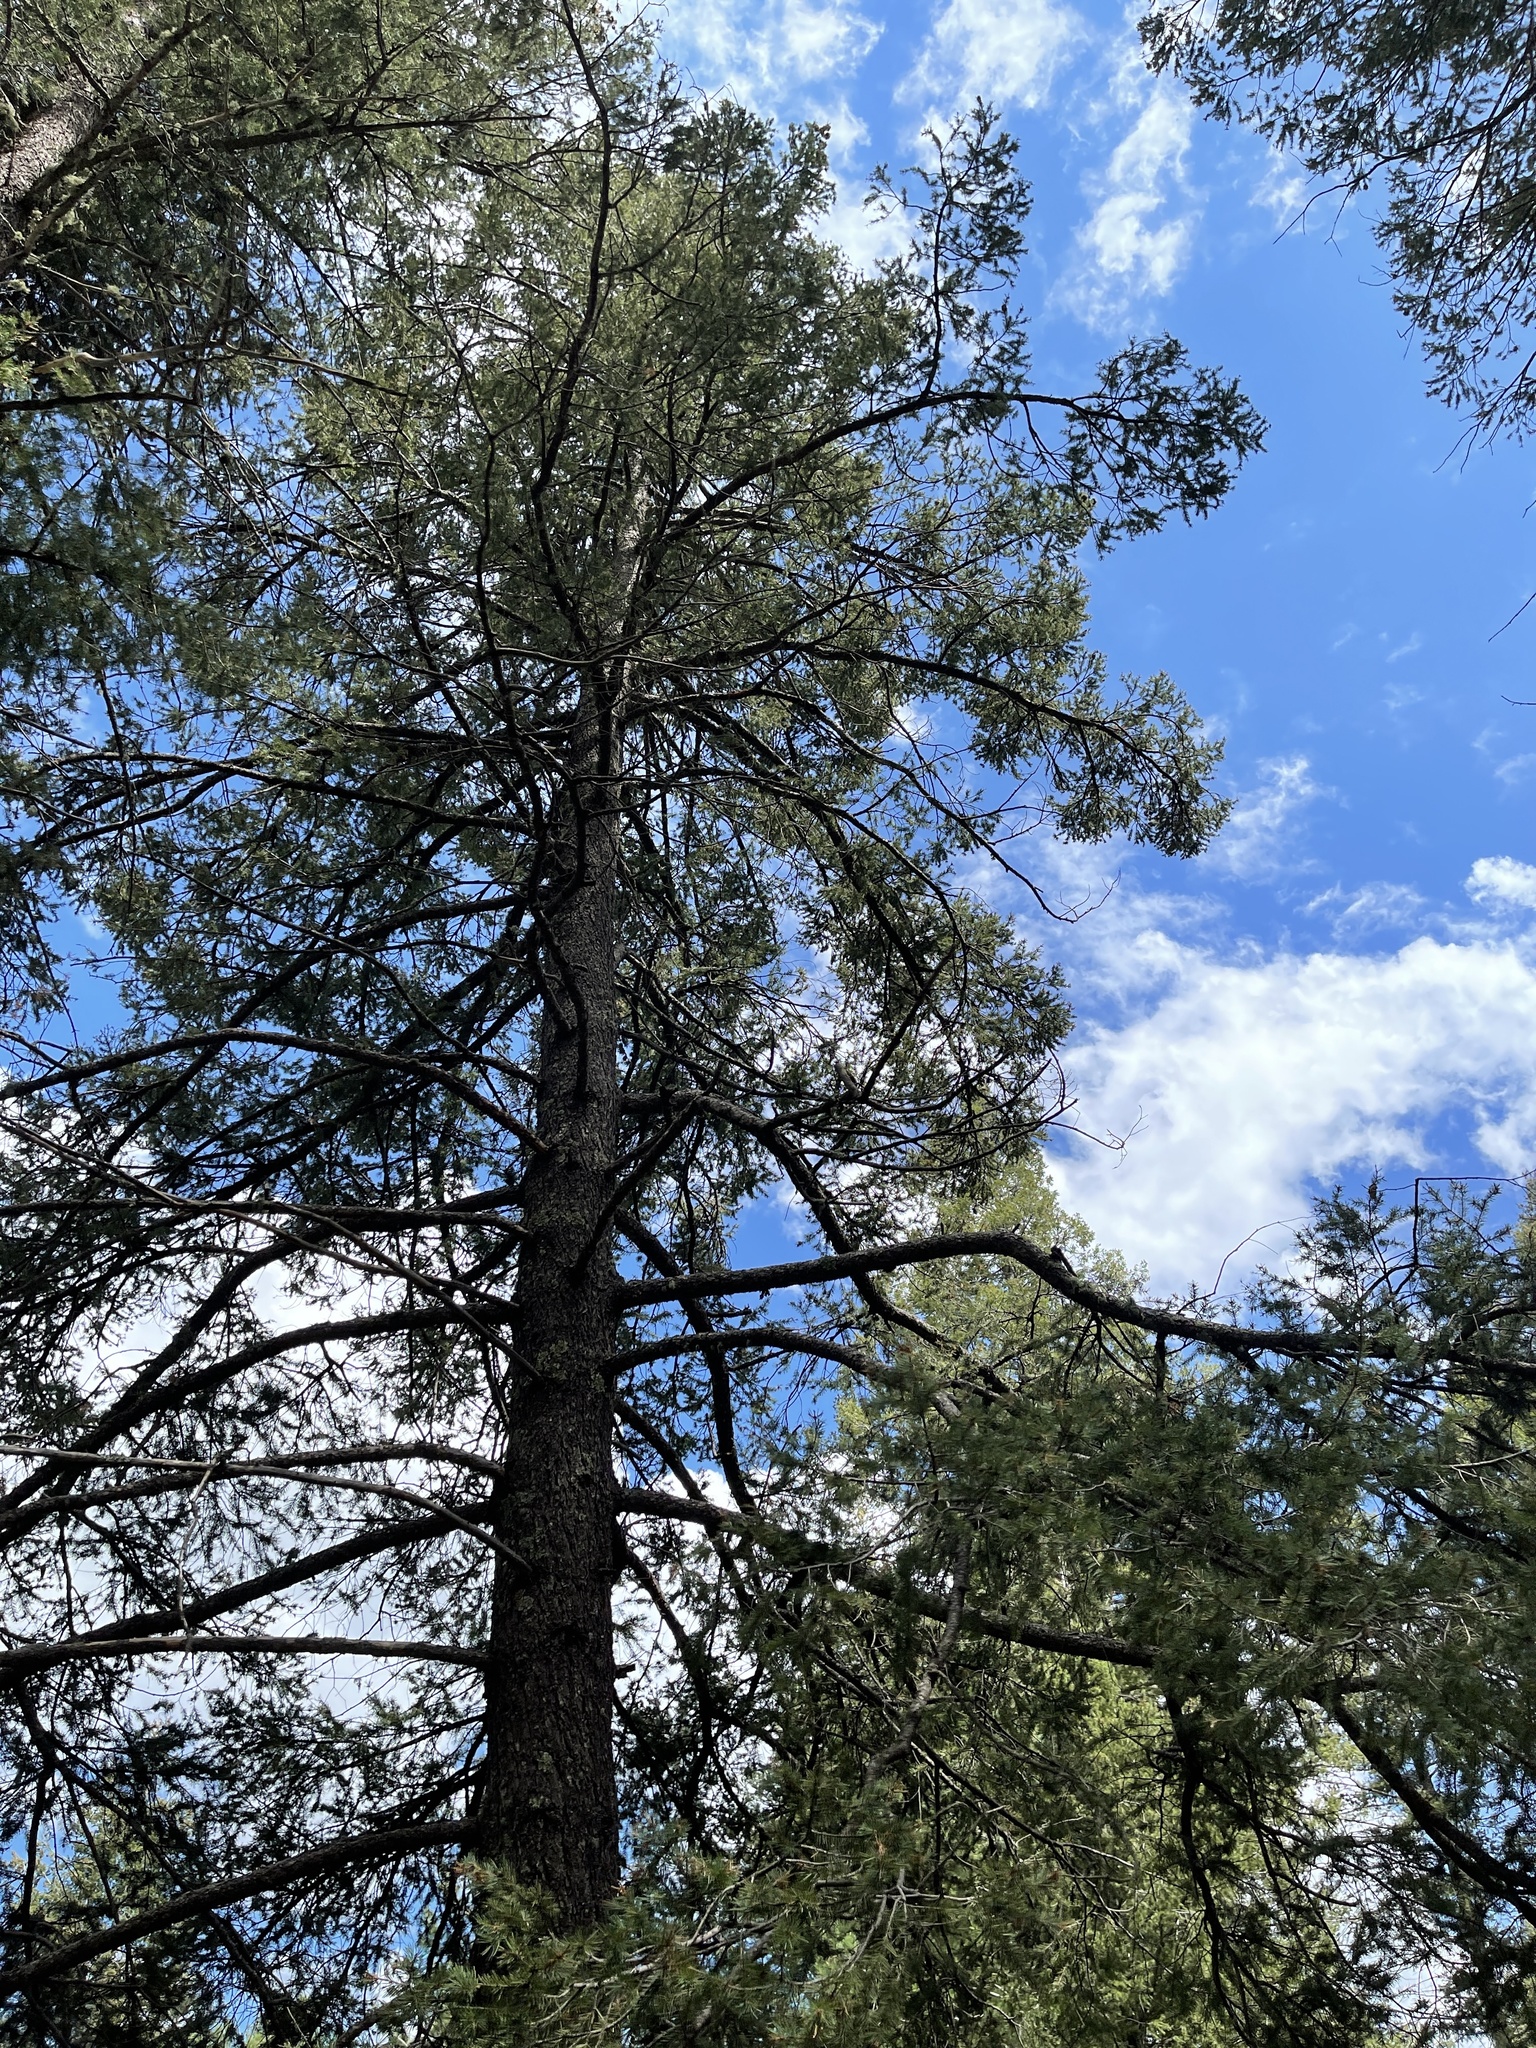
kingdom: Plantae
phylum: Tracheophyta
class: Pinopsida
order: Pinales
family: Pinaceae
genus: Pseudotsuga
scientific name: Pseudotsuga menziesii
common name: Douglas fir
